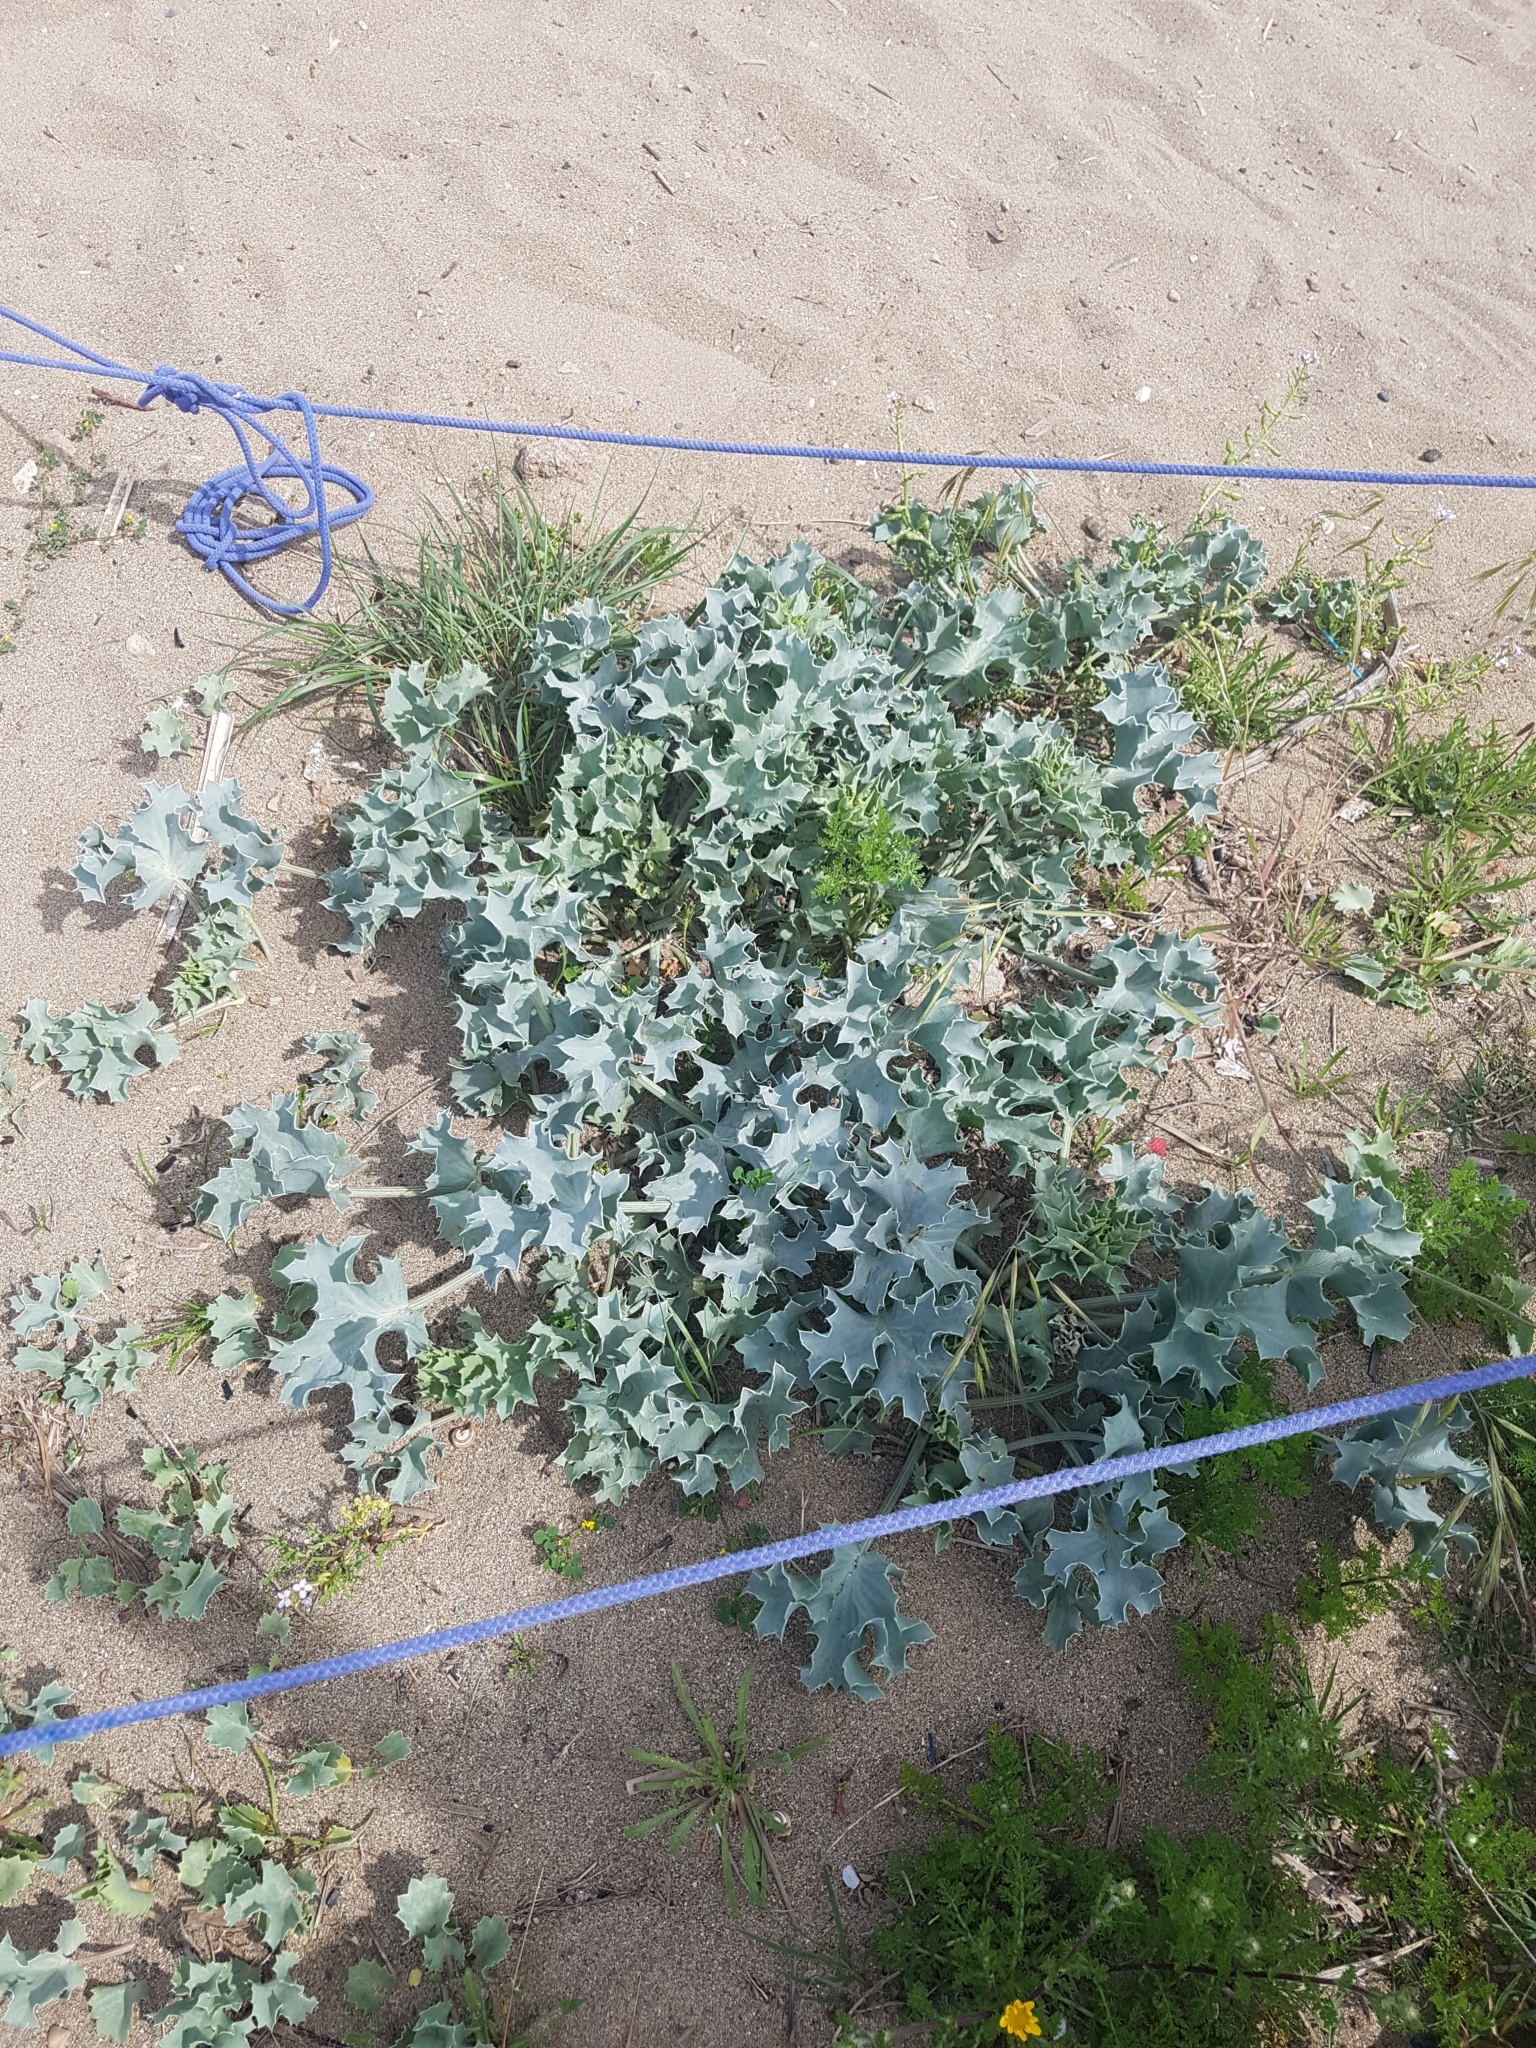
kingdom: Plantae
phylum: Tracheophyta
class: Magnoliopsida
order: Apiales
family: Apiaceae
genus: Eryngium
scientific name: Eryngium maritimum
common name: Sea-holly
